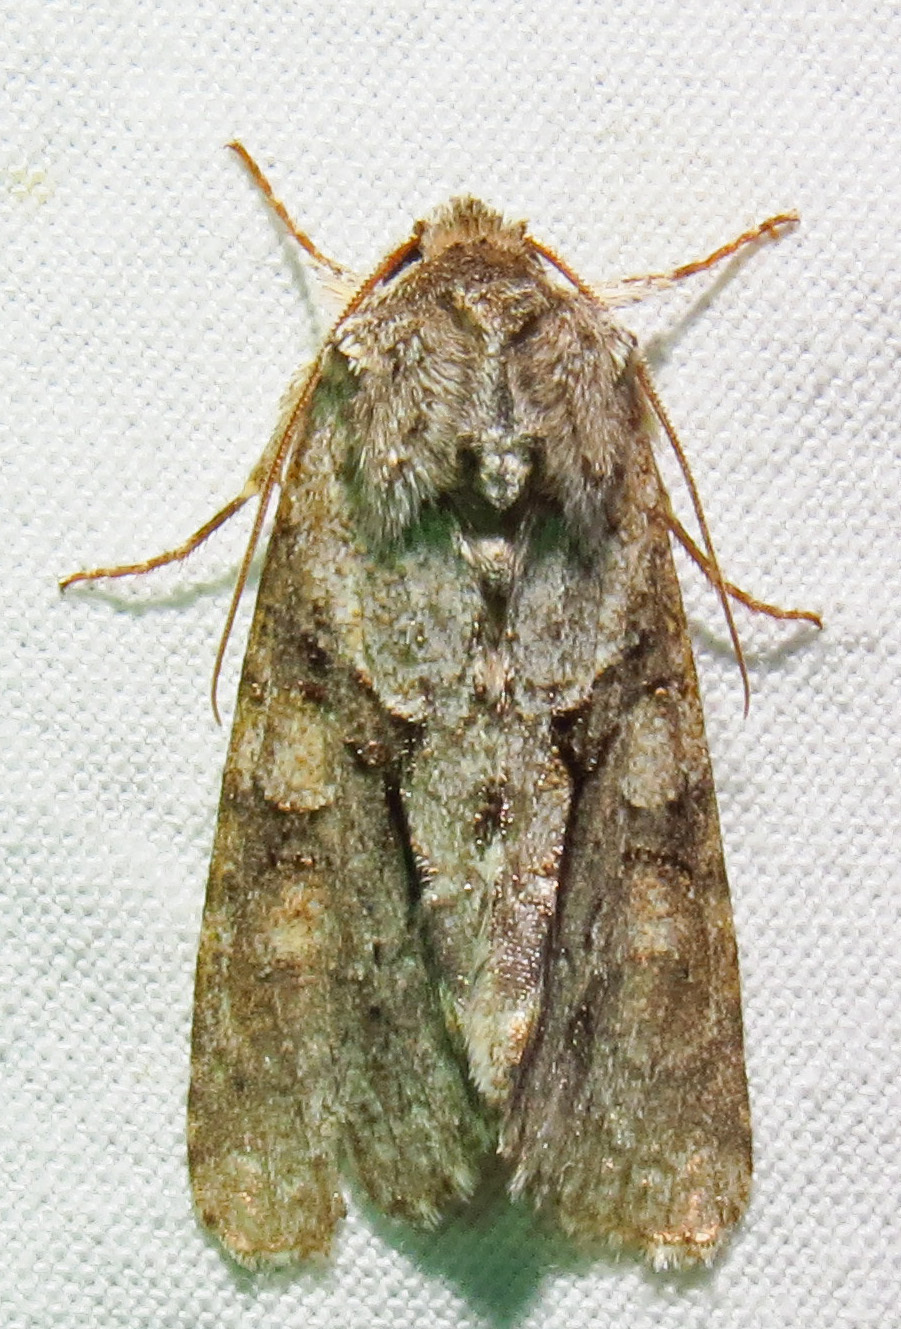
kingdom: Animalia
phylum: Arthropoda
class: Insecta
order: Lepidoptera
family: Noctuidae
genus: Achatia
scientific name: Achatia distincta
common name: Distinct quaker
